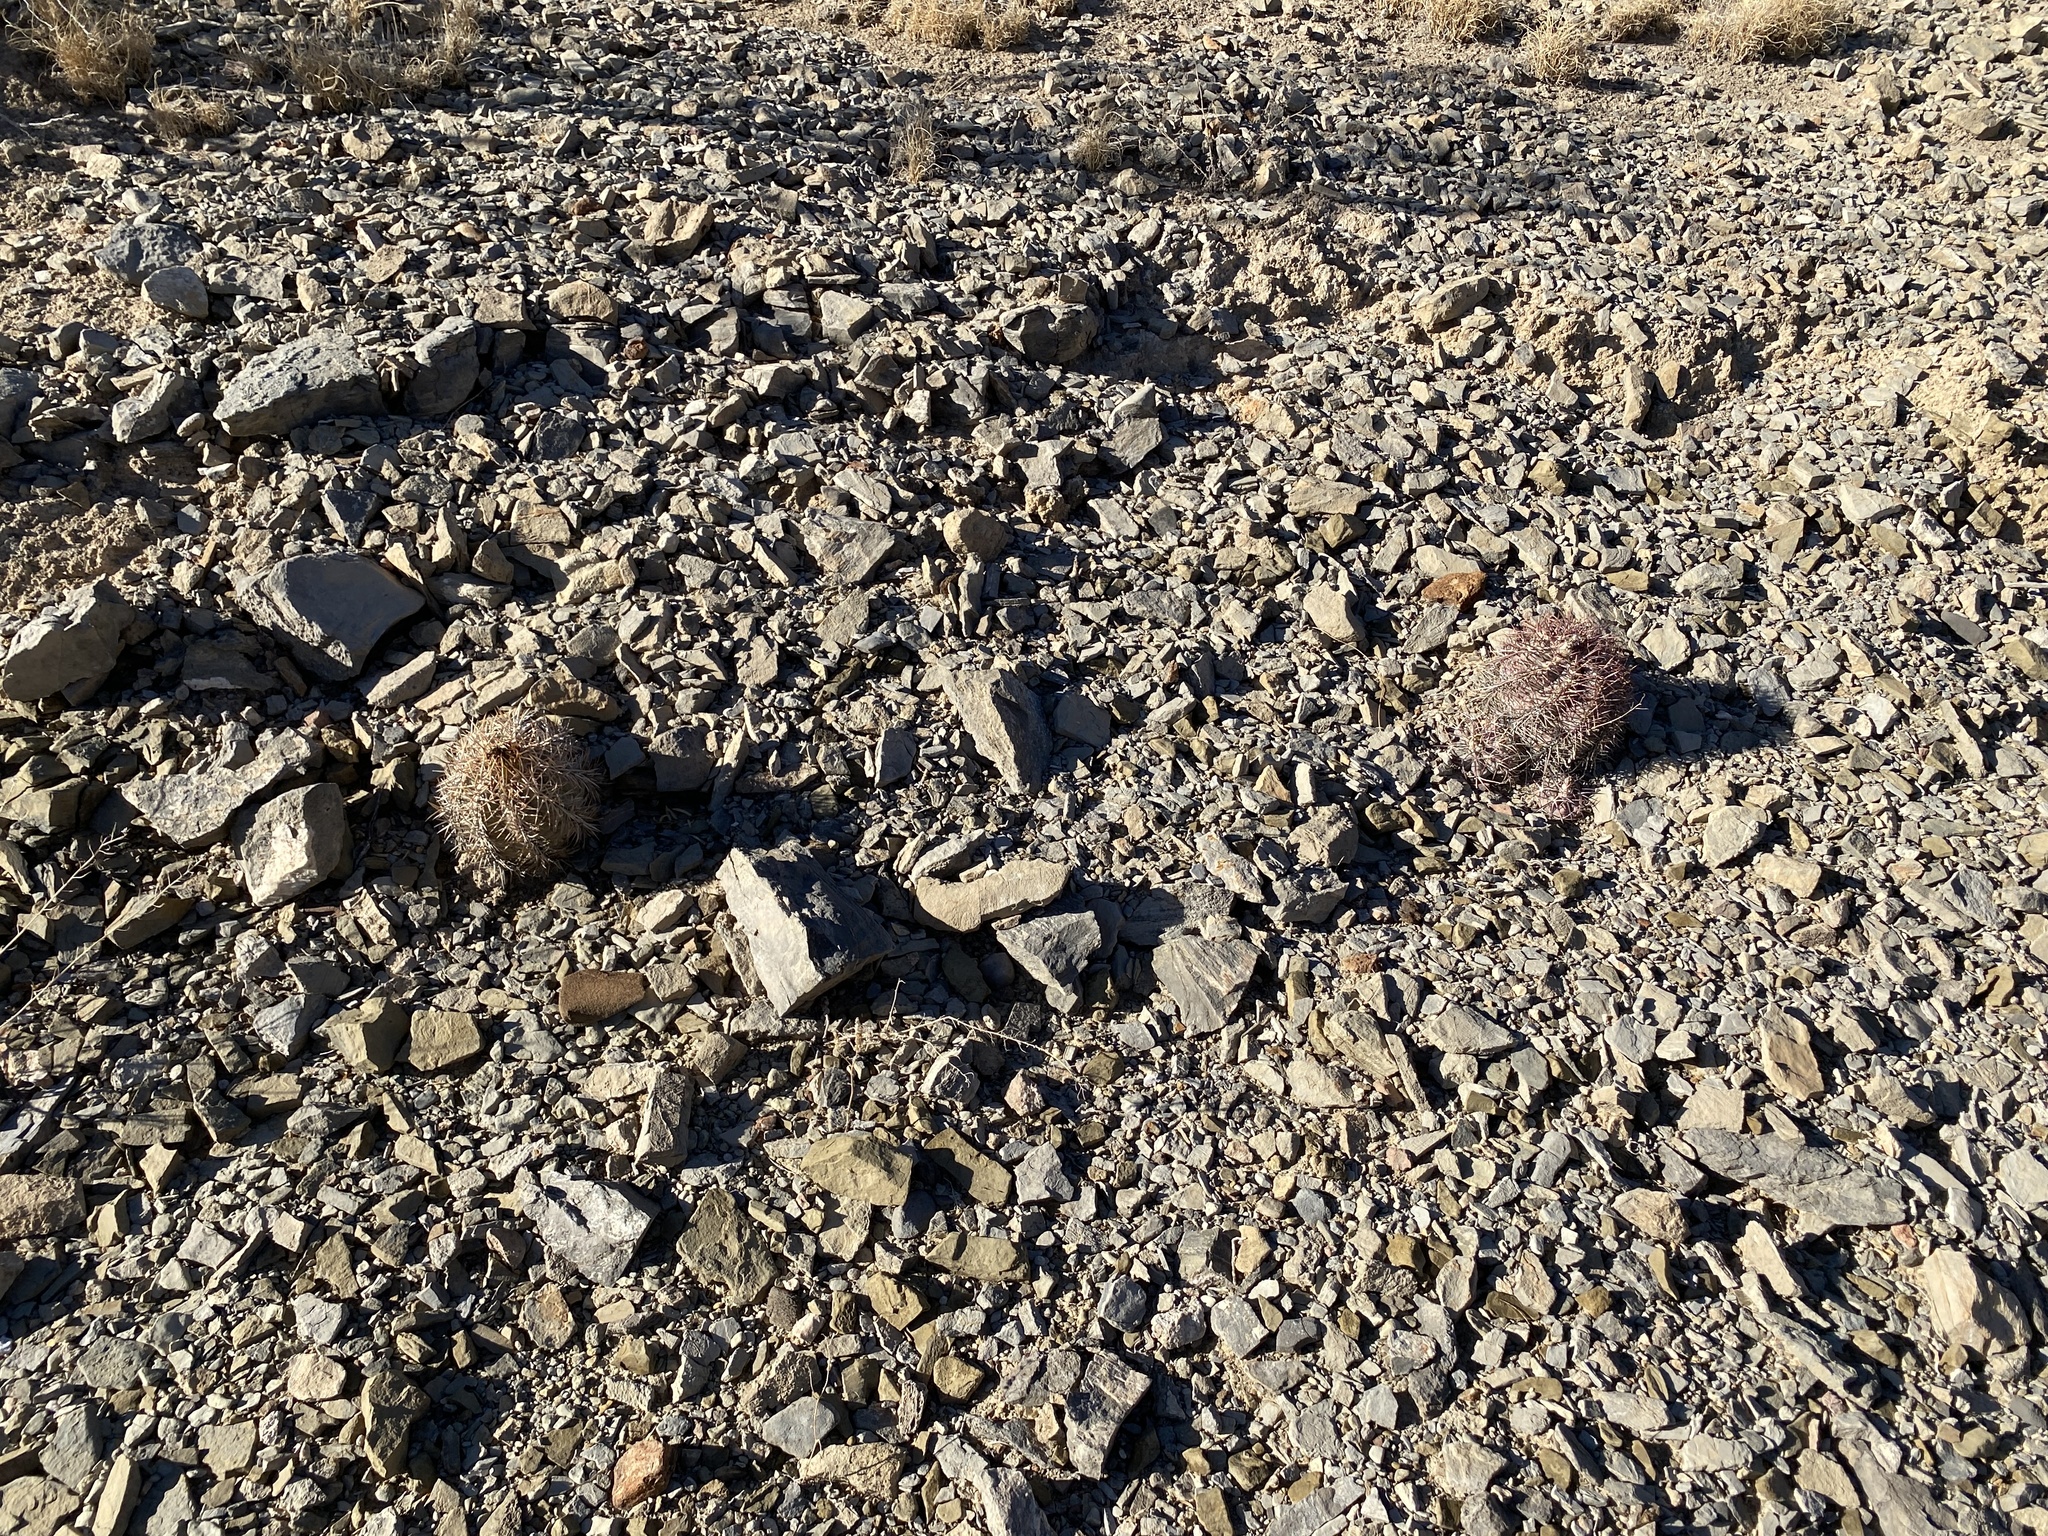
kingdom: Plantae
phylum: Tracheophyta
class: Magnoliopsida
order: Caryophyllales
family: Cactaceae
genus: Echinocactus
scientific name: Echinocactus horizonthalonius
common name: Devilshead
